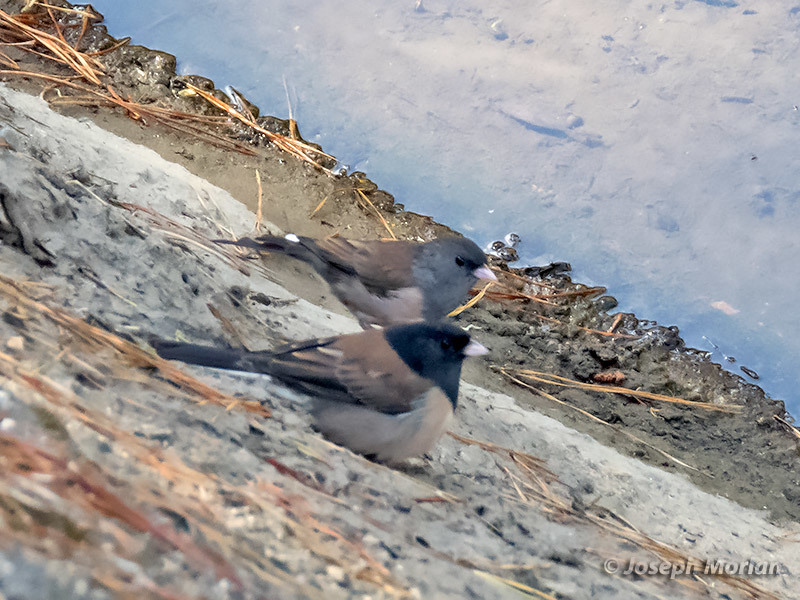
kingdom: Animalia
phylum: Chordata
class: Aves
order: Passeriformes
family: Passerellidae
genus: Junco
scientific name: Junco hyemalis
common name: Dark-eyed junco
